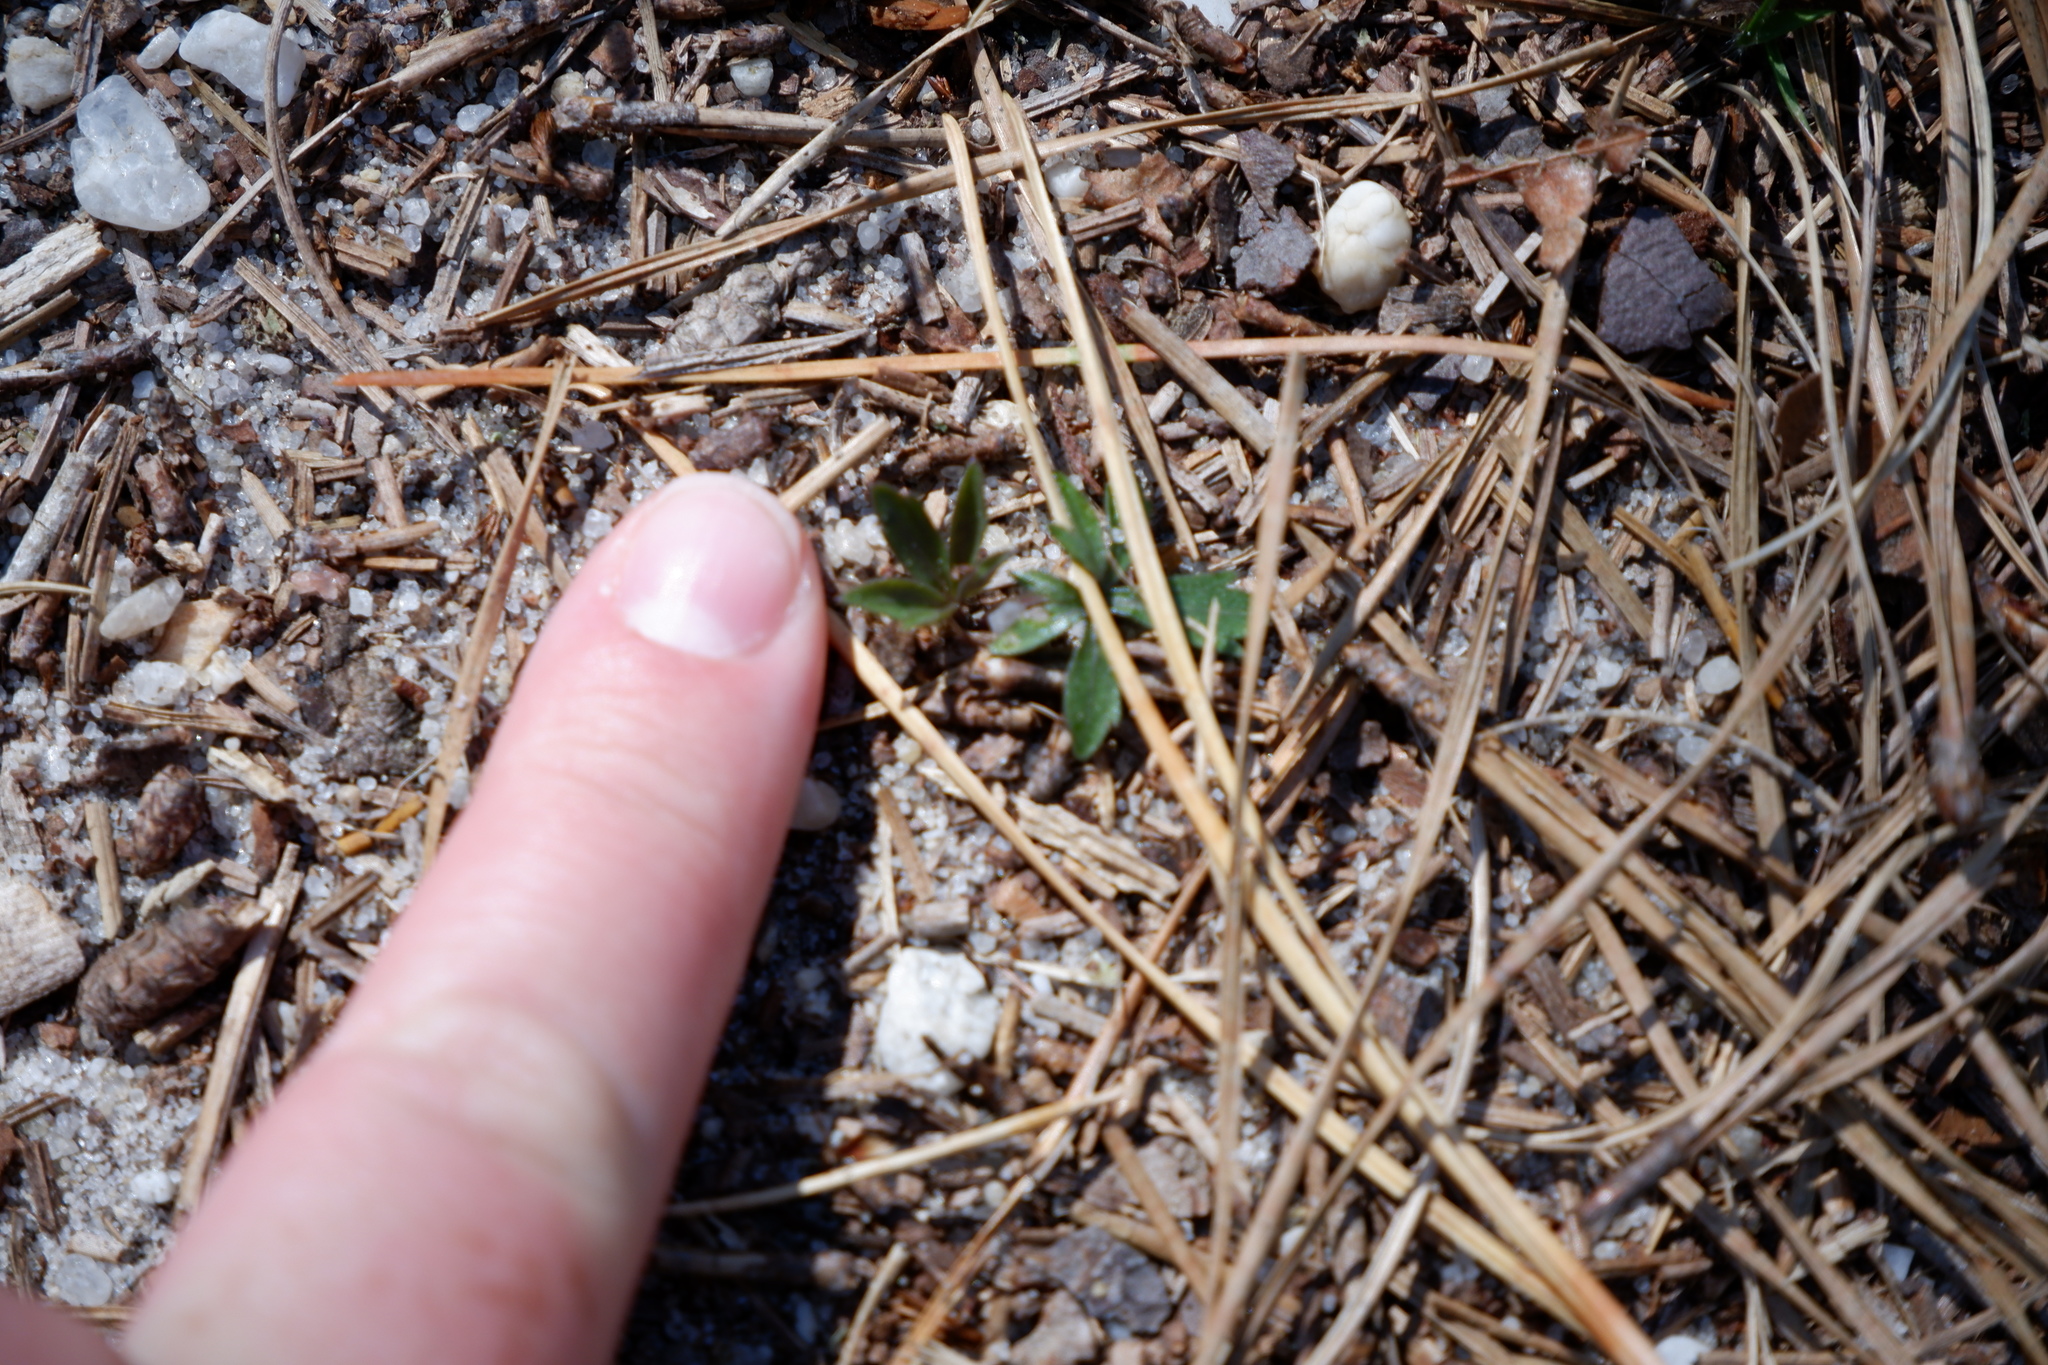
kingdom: Plantae
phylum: Tracheophyta
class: Magnoliopsida
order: Malpighiales
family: Violaceae
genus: Viola
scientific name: Viola pedata
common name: Pansy violet
